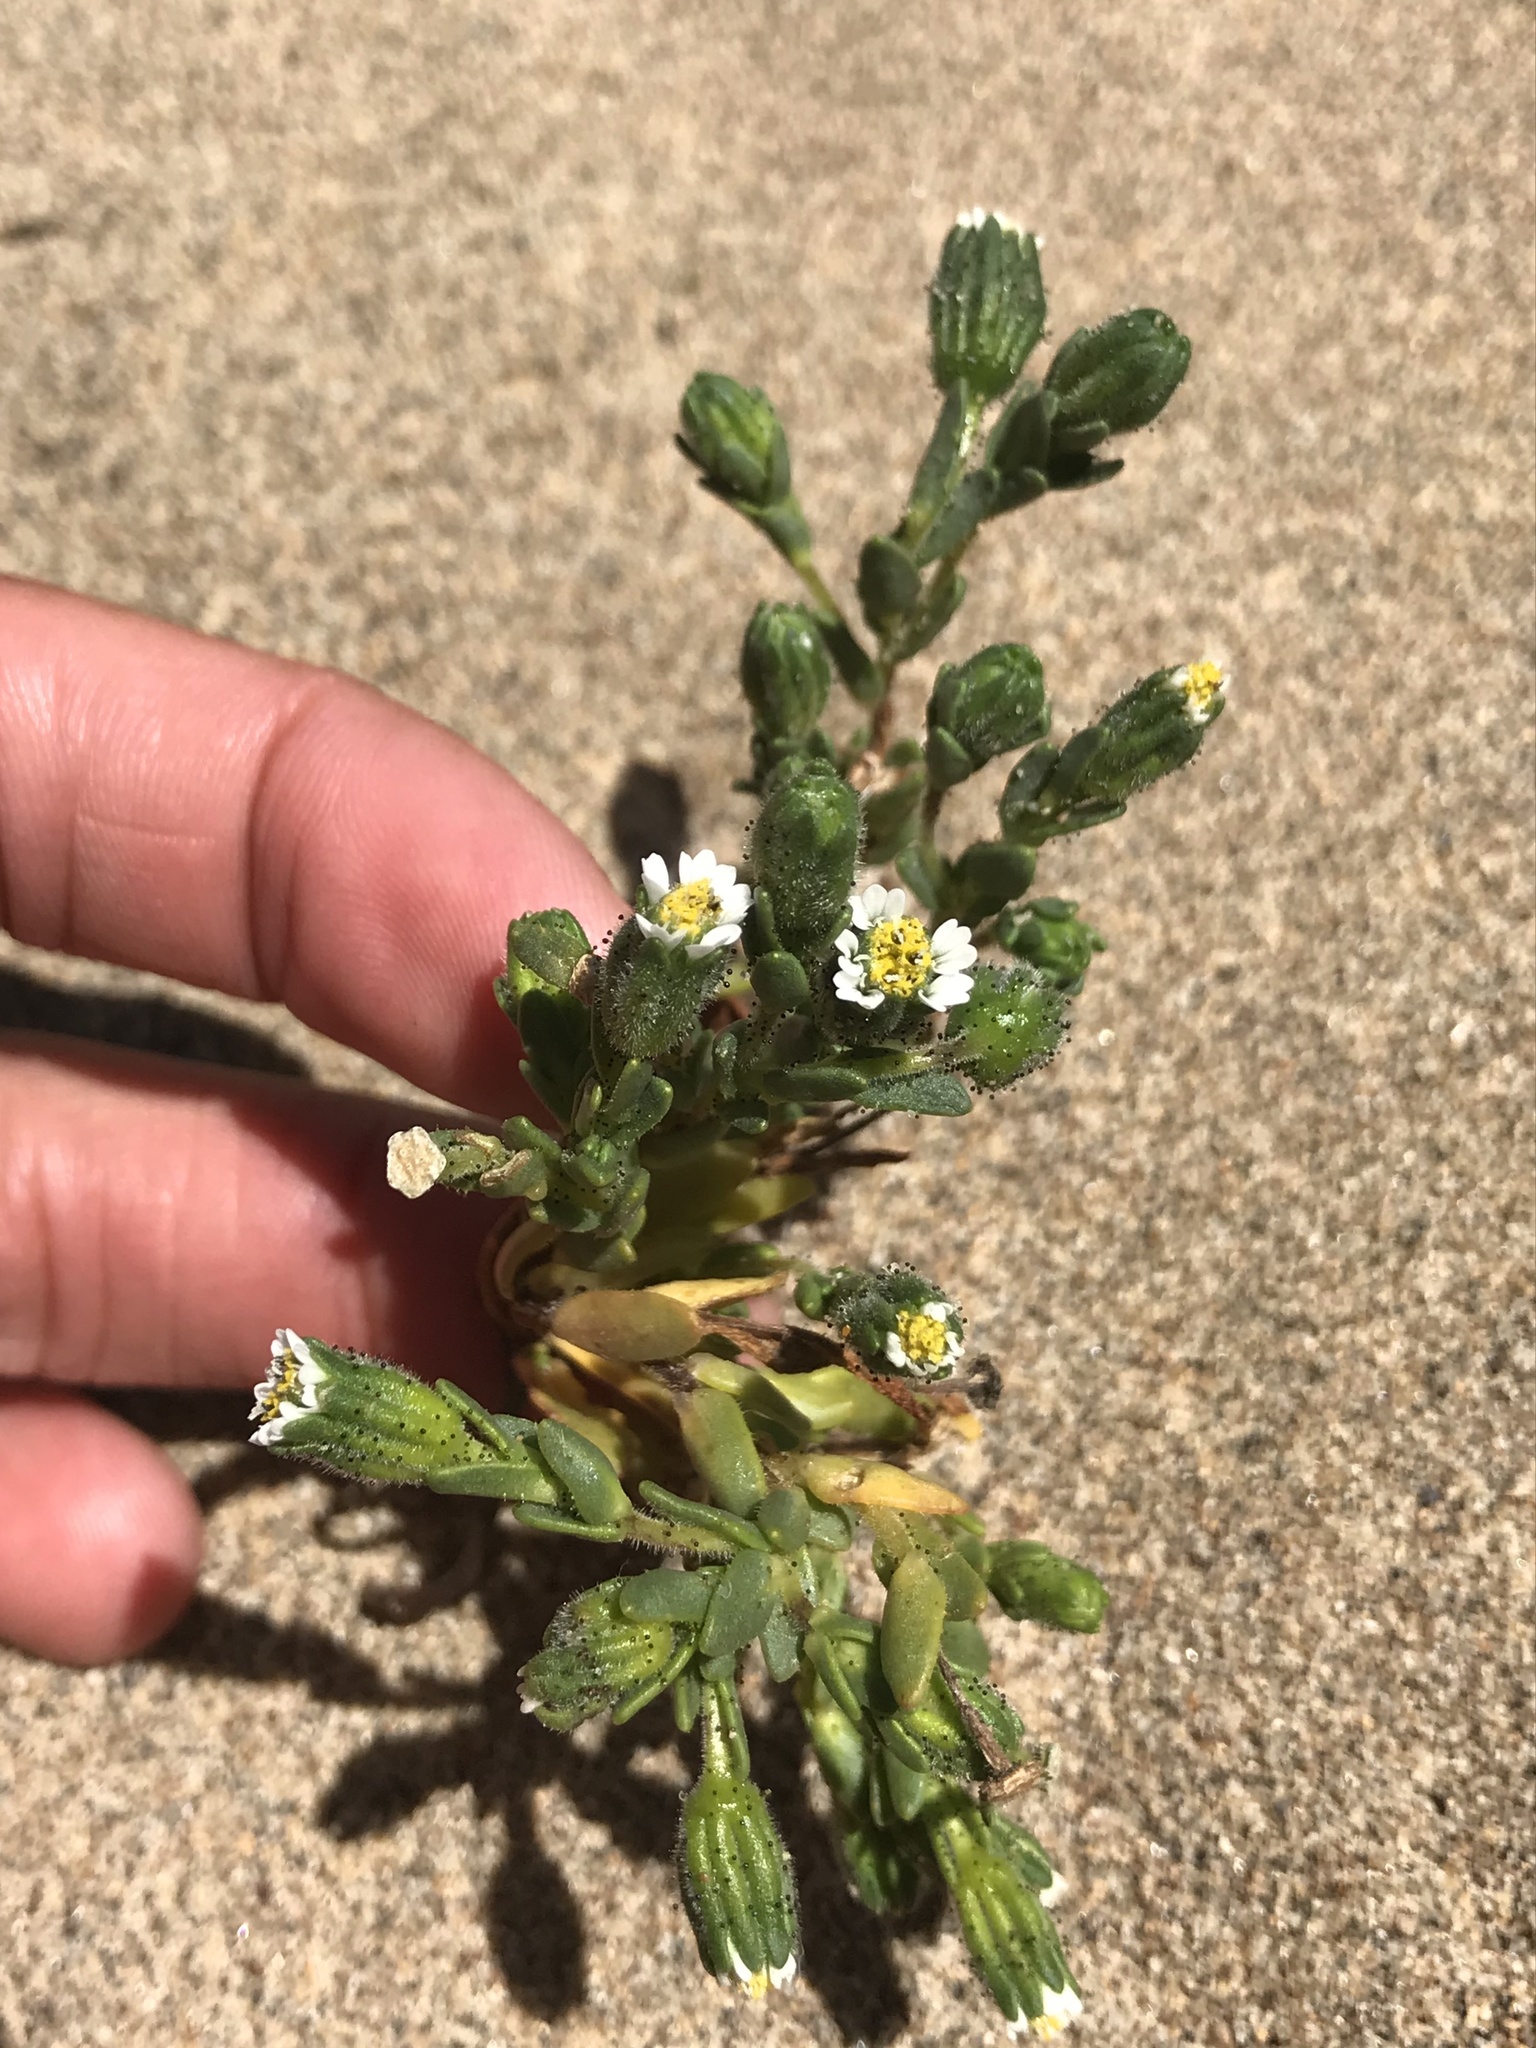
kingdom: Plantae
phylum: Tracheophyta
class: Magnoliopsida
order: Asterales
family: Asteraceae
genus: Layia
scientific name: Layia carnosa
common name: Beach layia
